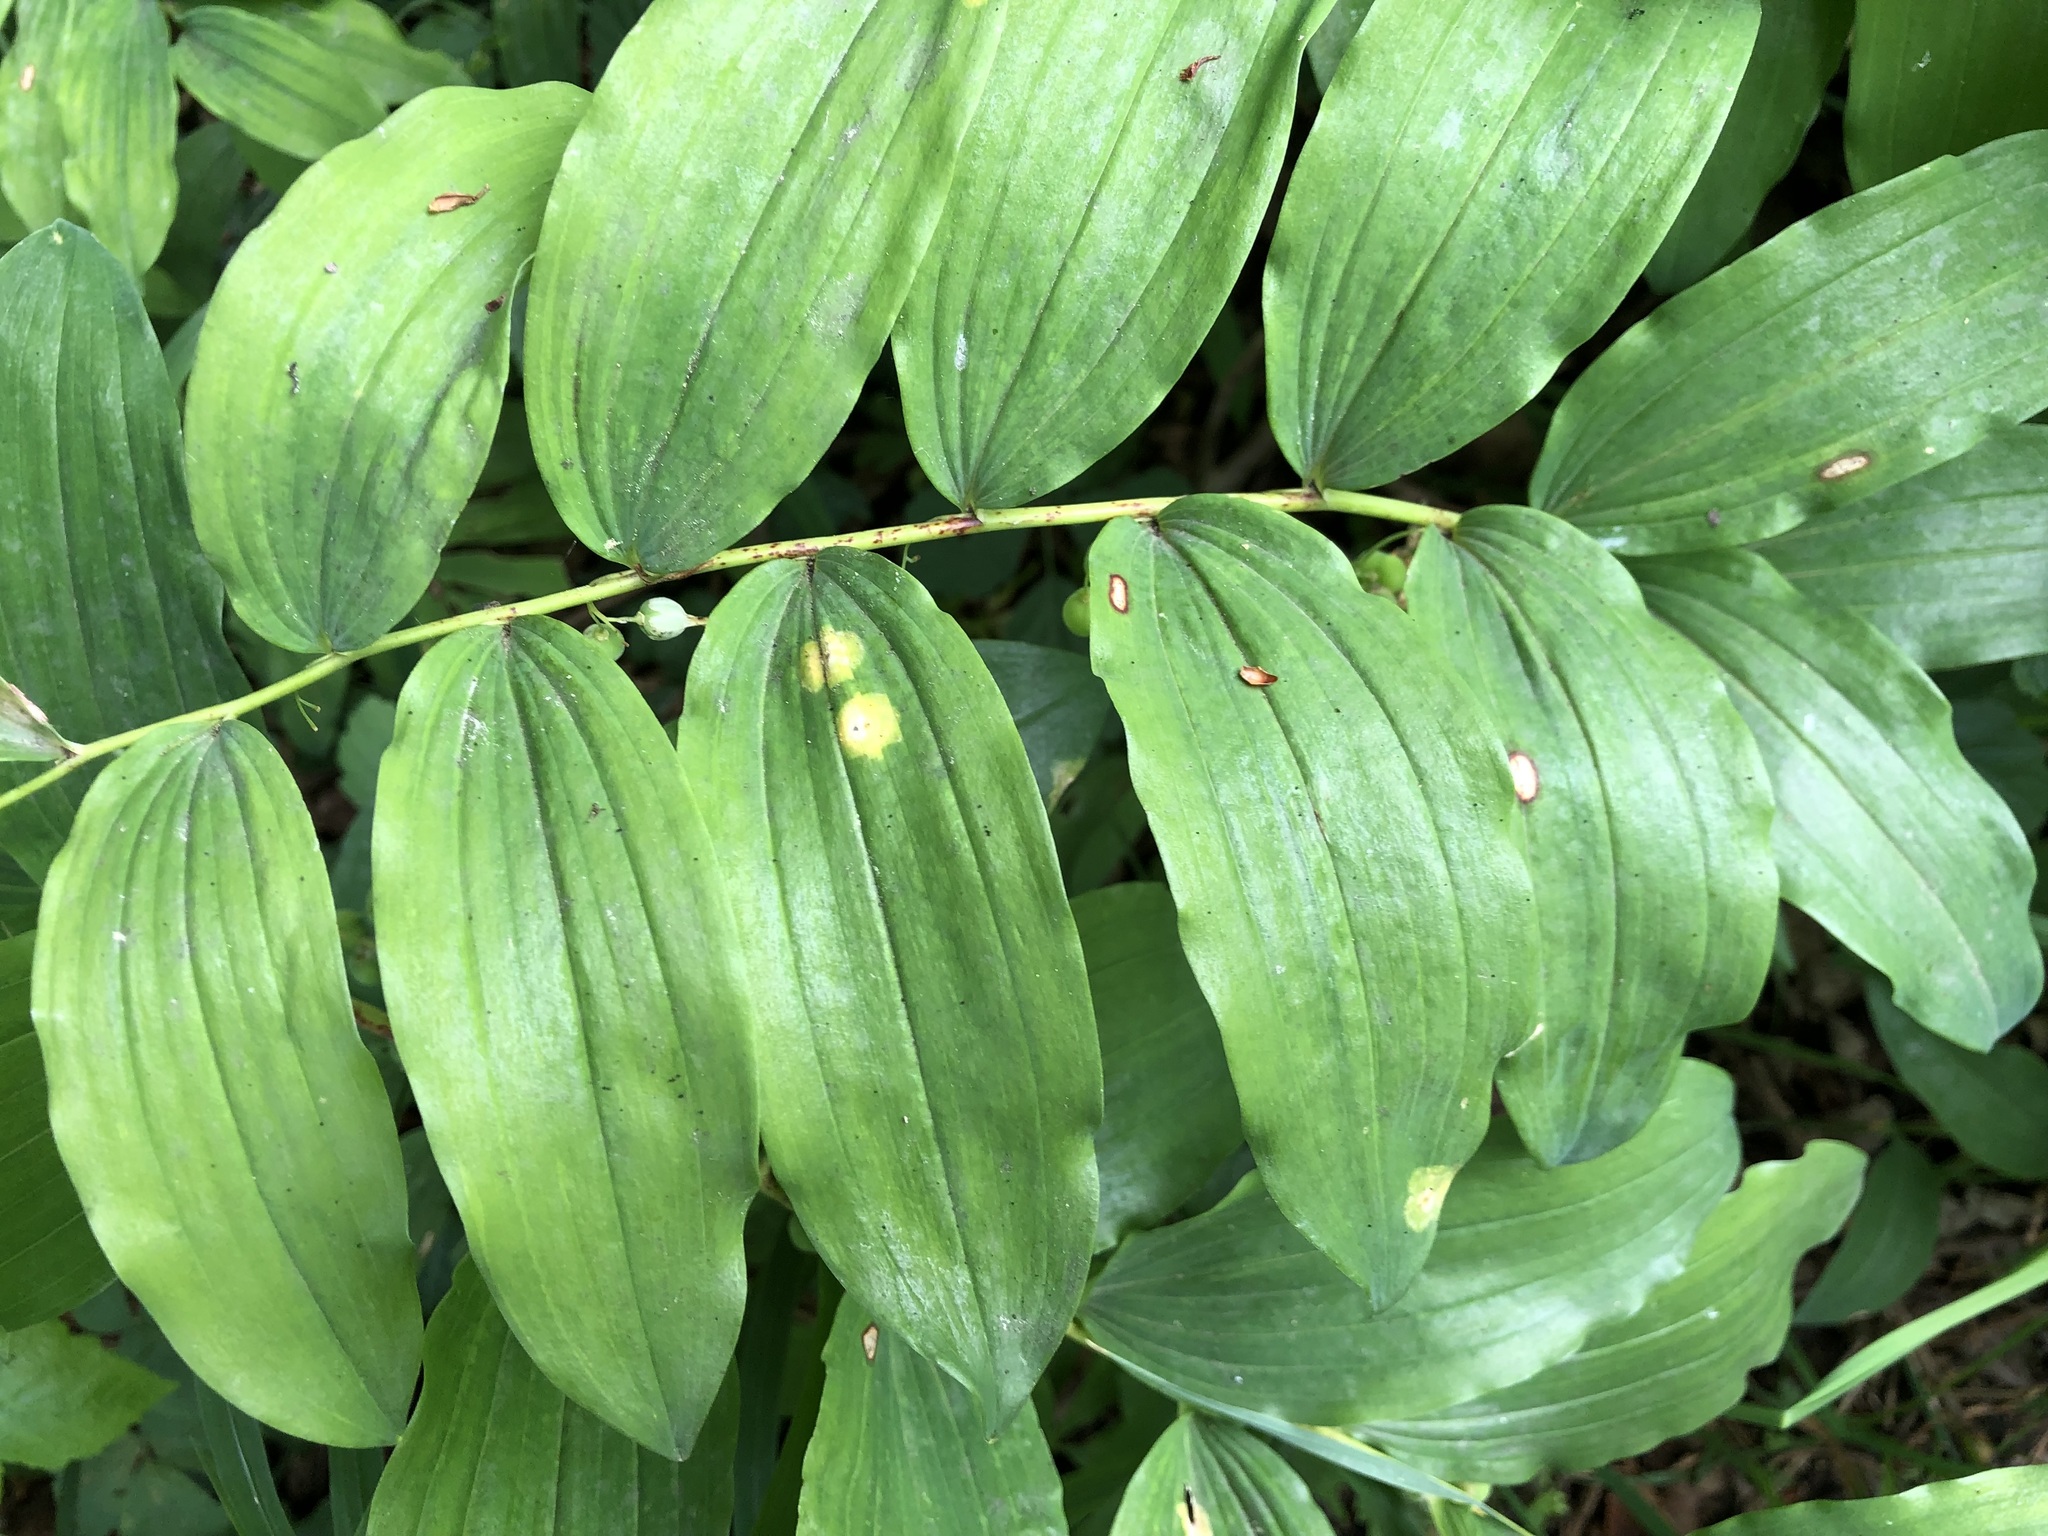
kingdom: Plantae
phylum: Tracheophyta
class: Liliopsida
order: Asparagales
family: Asparagaceae
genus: Polygonatum
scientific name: Polygonatum multiflorum
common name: Solomon's-seal
